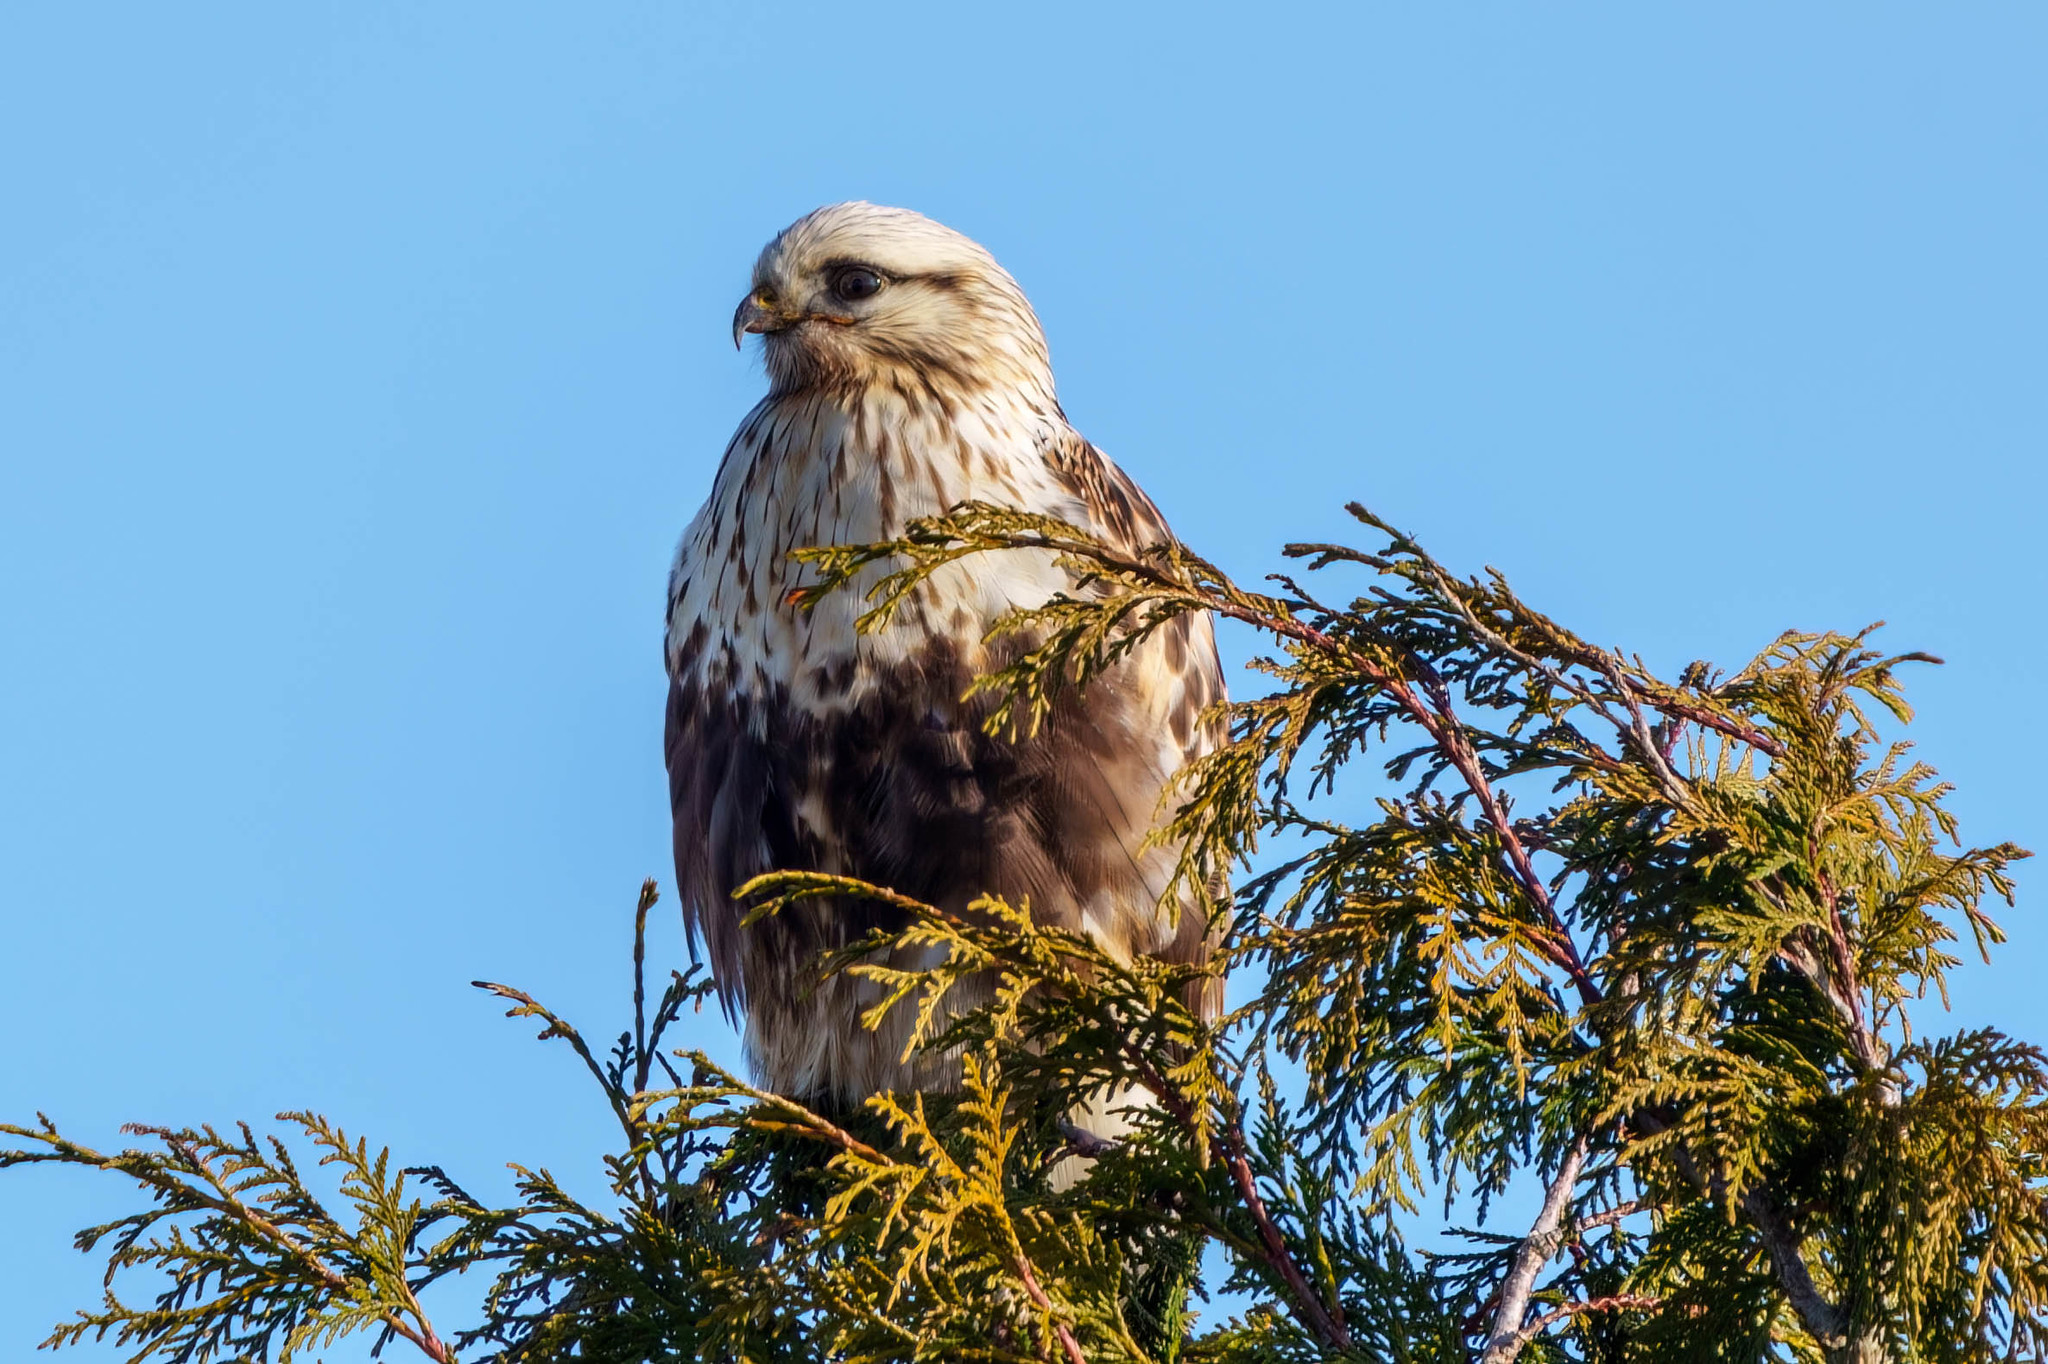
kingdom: Animalia
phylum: Chordata
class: Aves
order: Accipitriformes
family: Accipitridae
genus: Buteo
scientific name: Buteo lagopus
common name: Rough-legged buzzard
